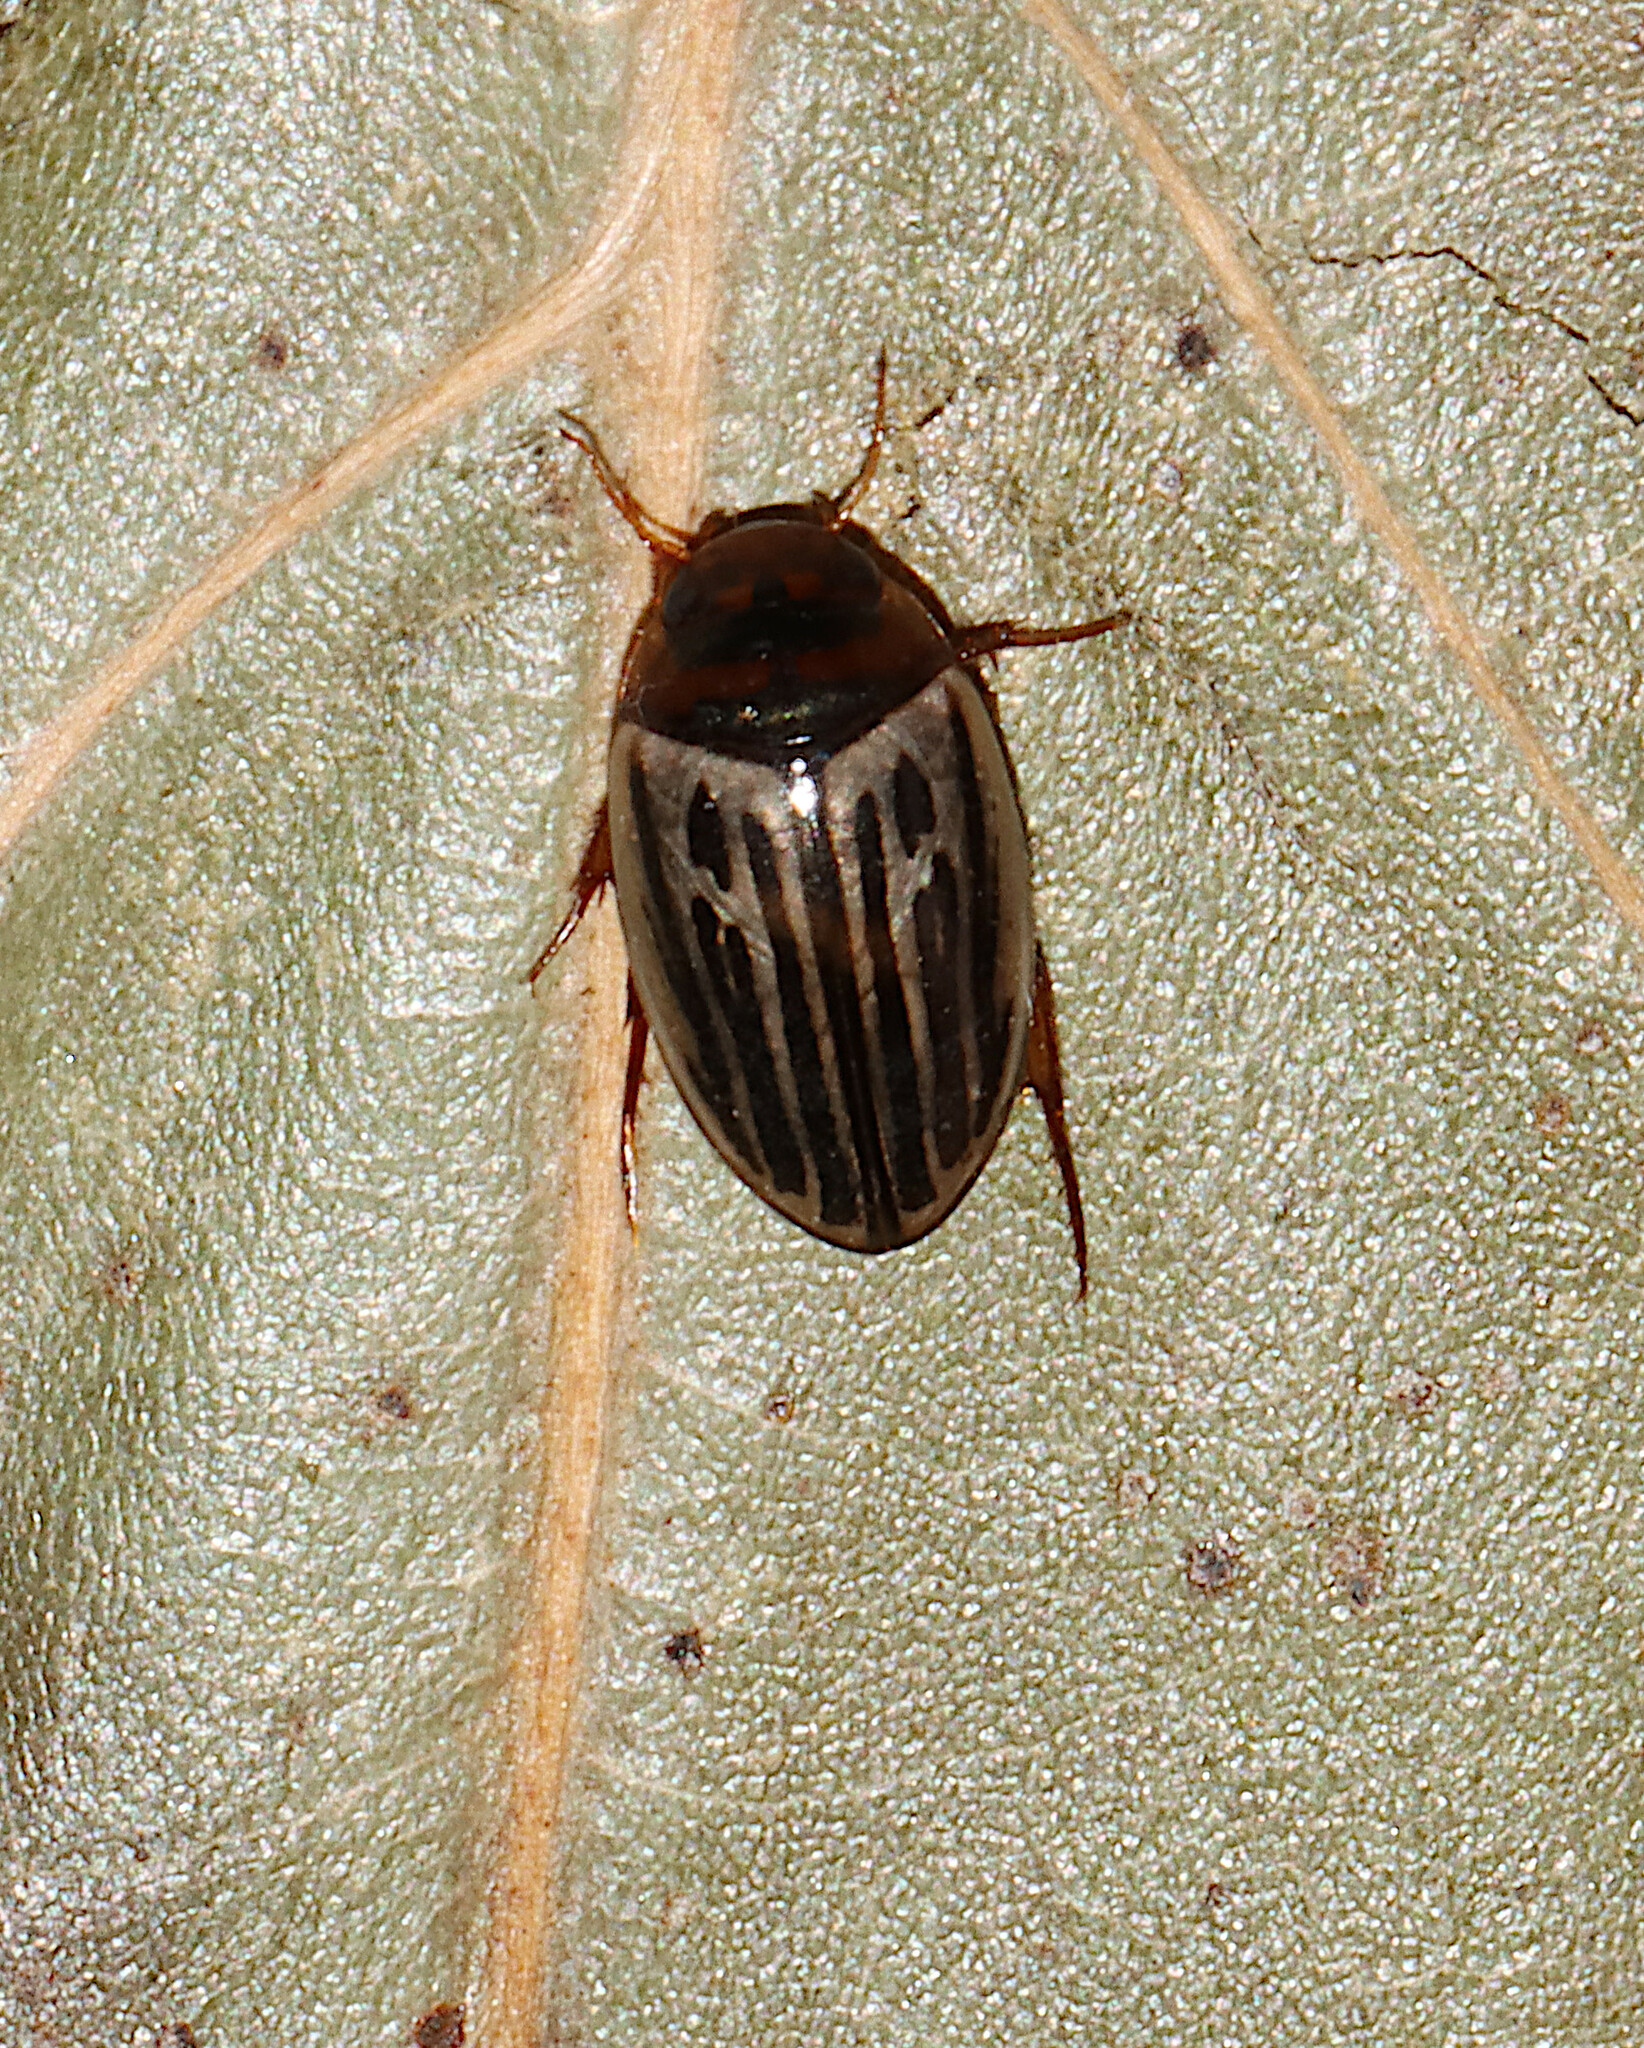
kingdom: Animalia
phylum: Arthropoda
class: Insecta
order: Coleoptera
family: Dytiscidae
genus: Agabus
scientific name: Agabus disintegratus
